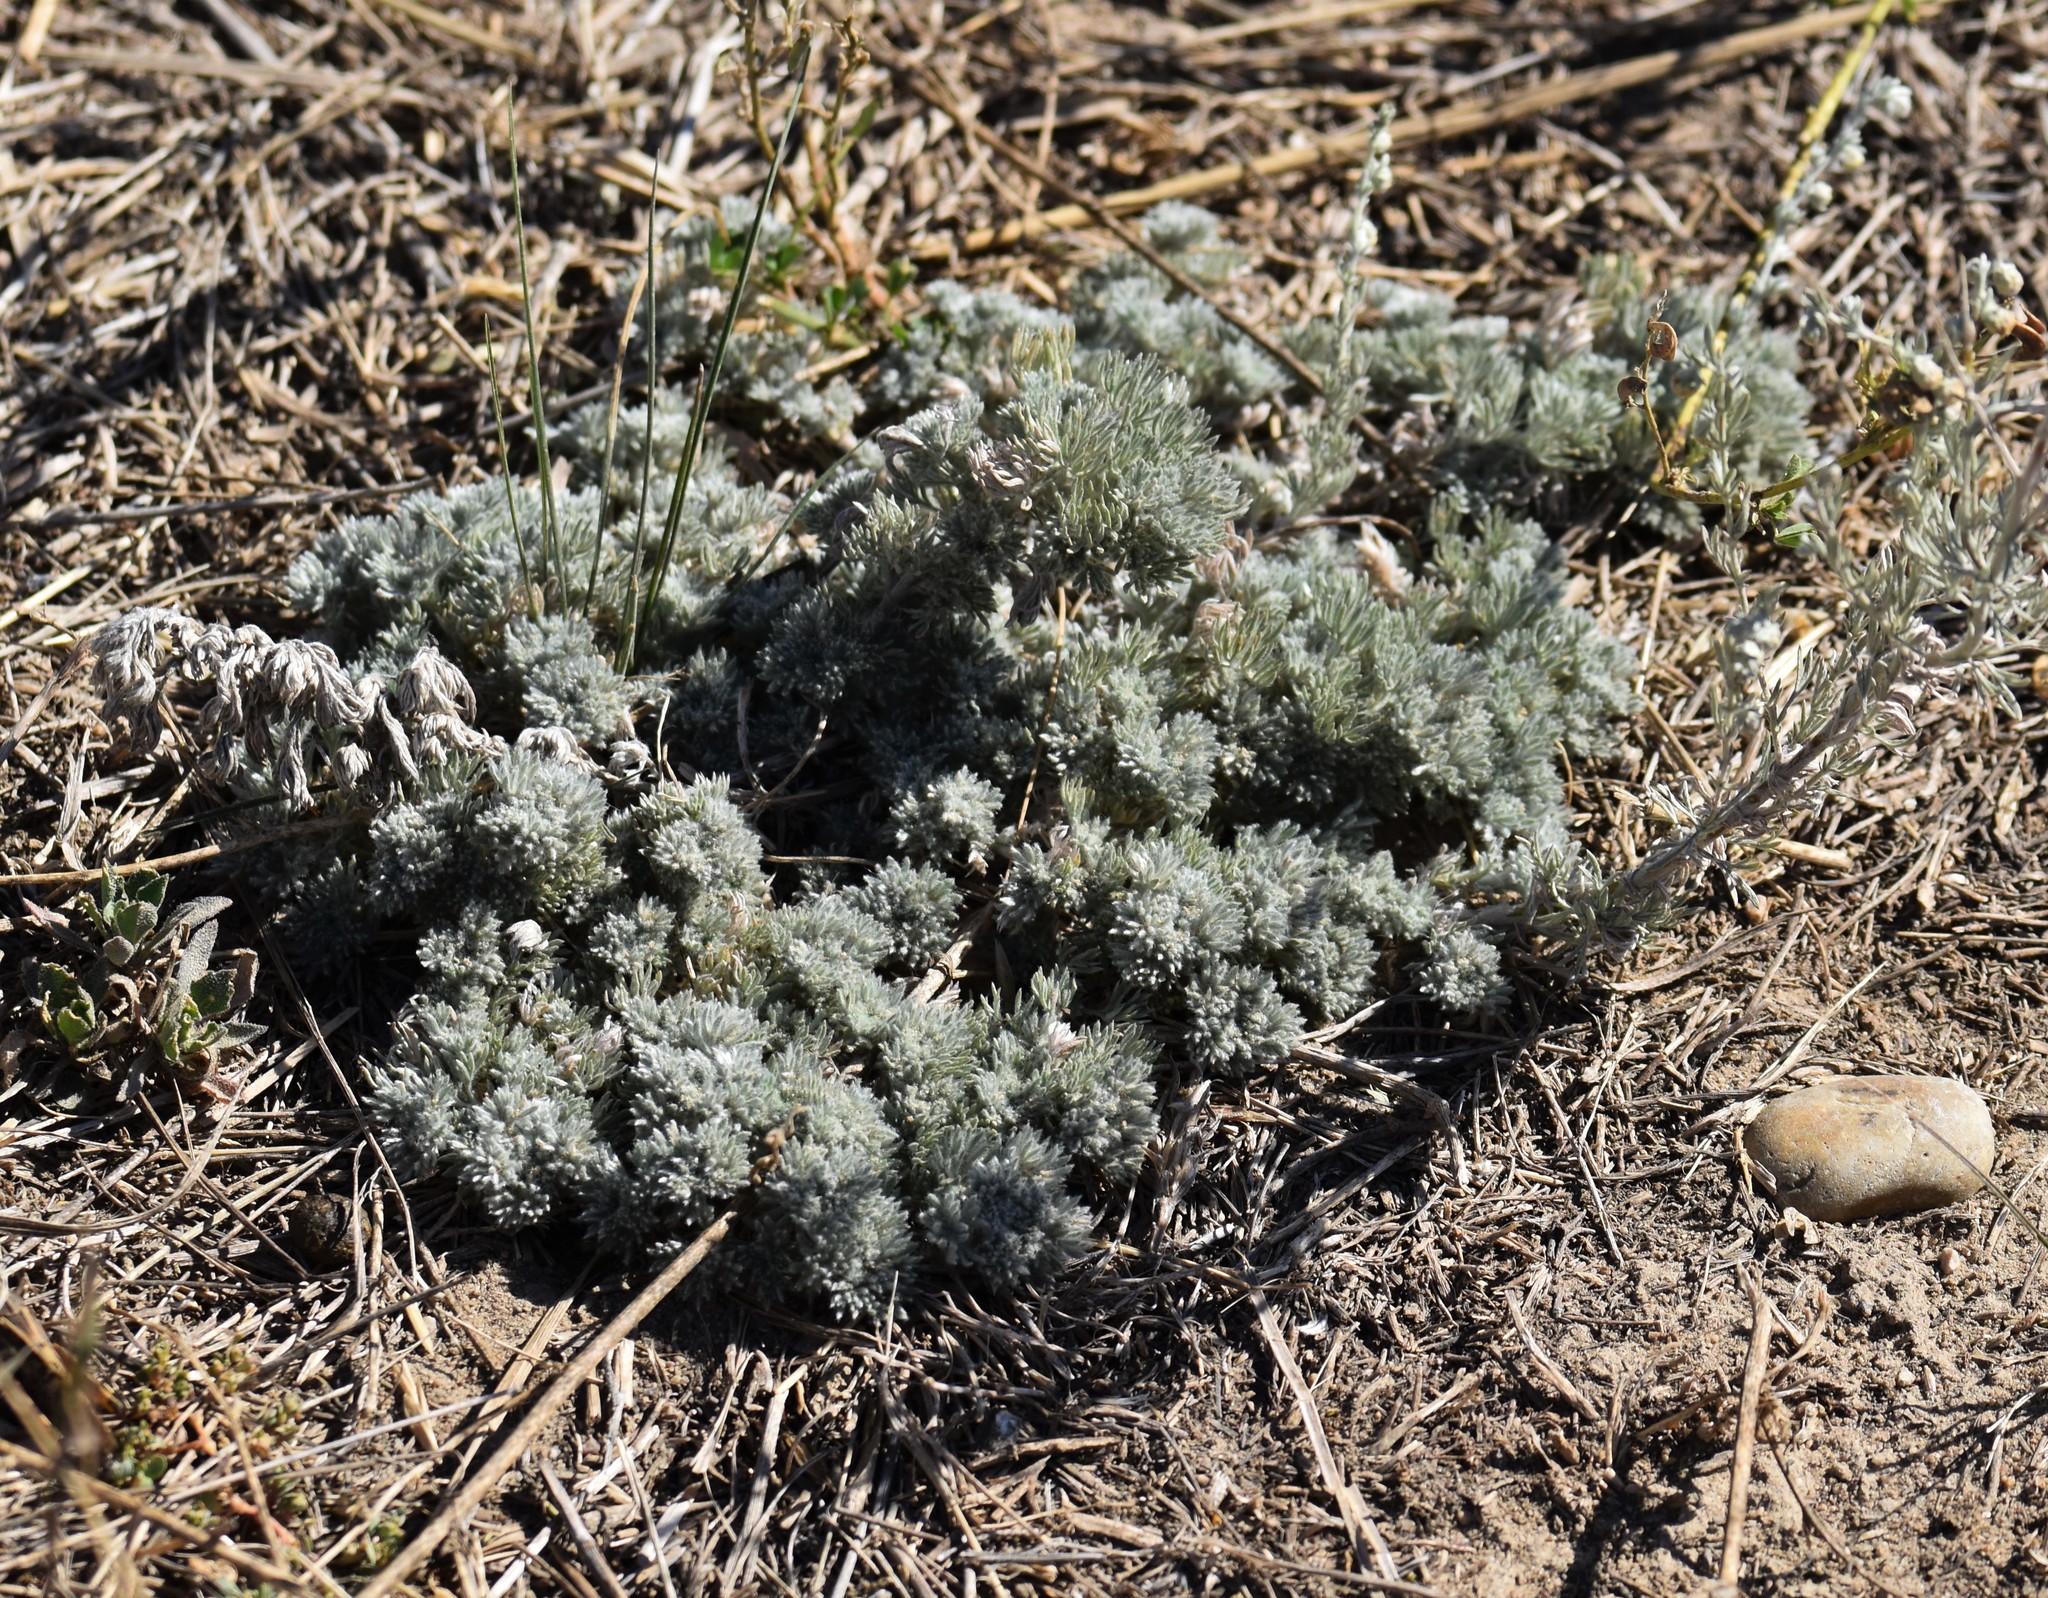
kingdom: Plantae
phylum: Tracheophyta
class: Magnoliopsida
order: Asterales
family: Asteraceae
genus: Artemisia
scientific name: Artemisia frigida
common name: Prairie sagewort
